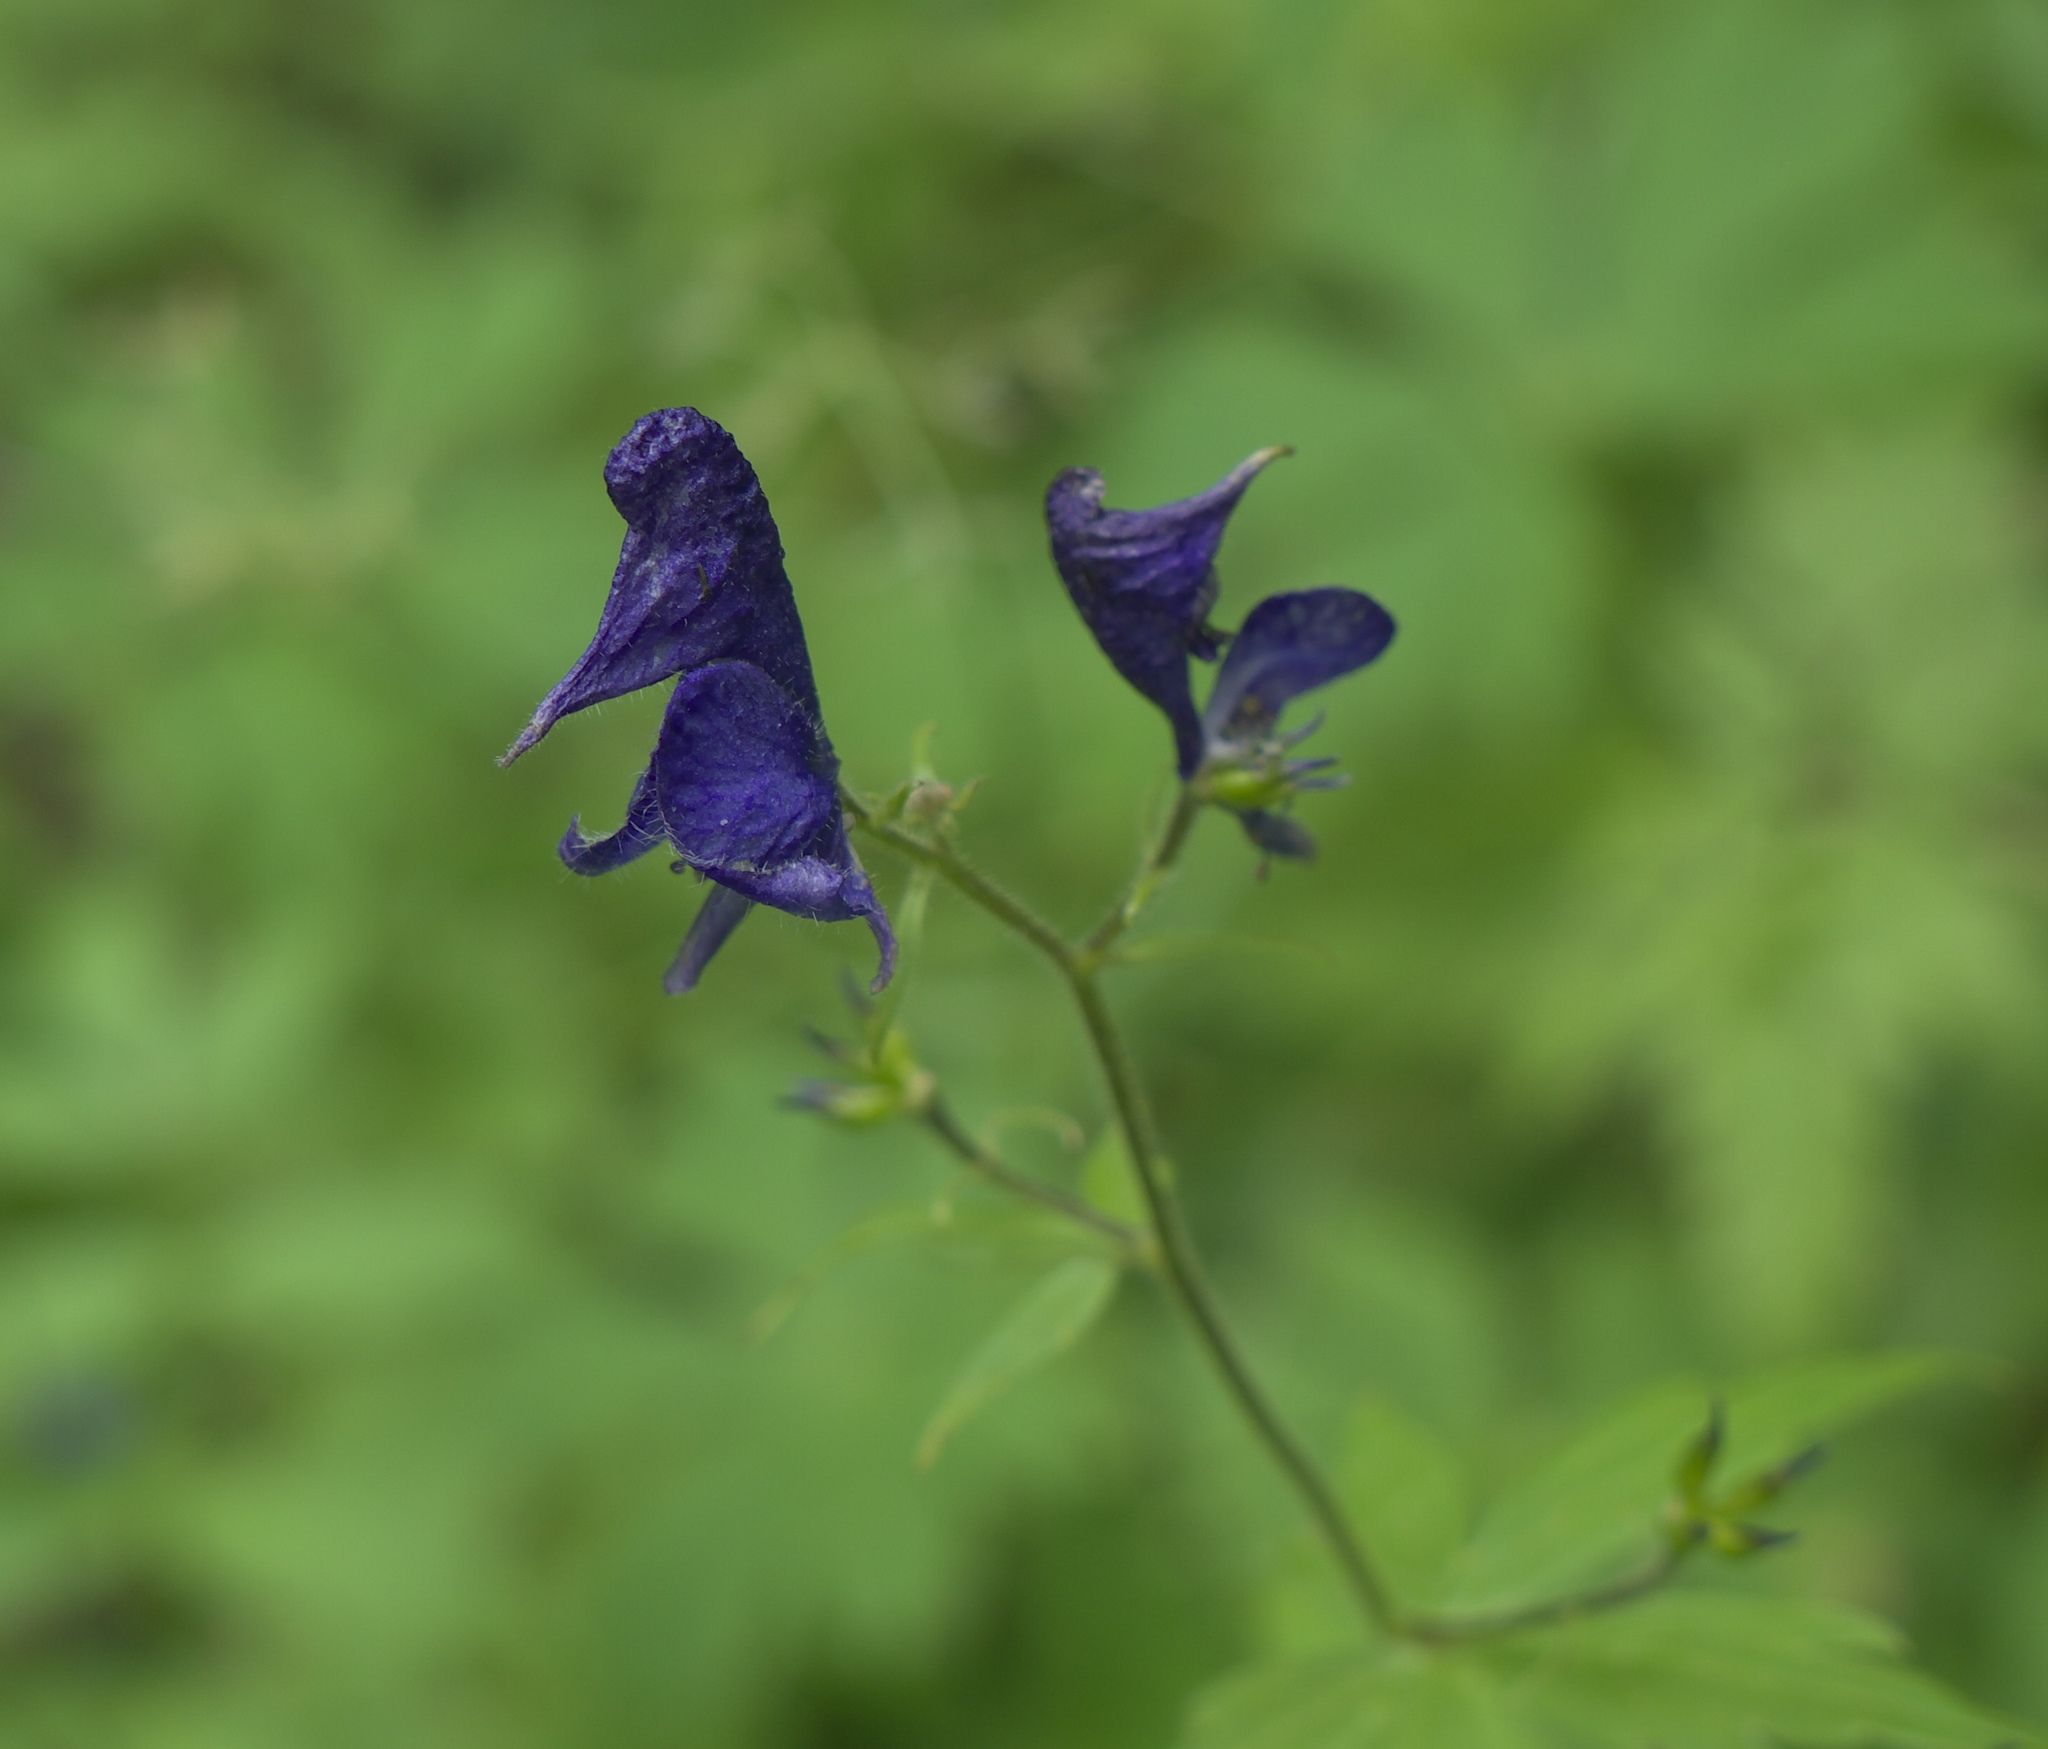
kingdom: Plantae
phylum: Tracheophyta
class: Magnoliopsida
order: Ranunculales
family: Ranunculaceae
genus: Aconitum
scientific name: Aconitum columbianum
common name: Columbia aconite
